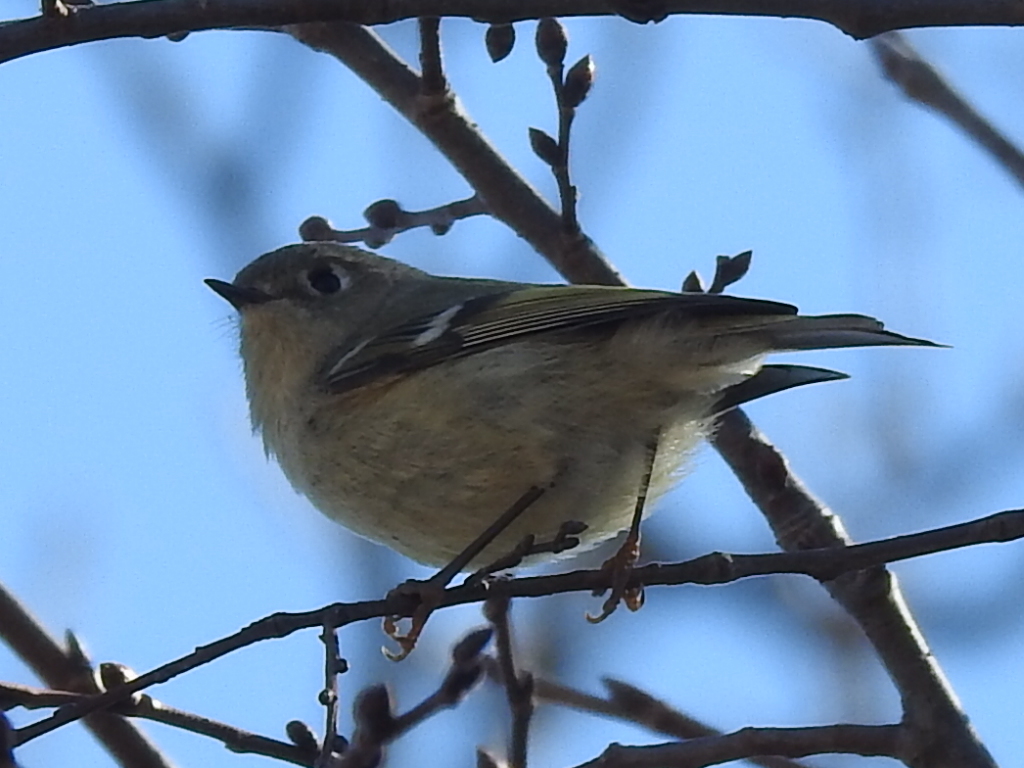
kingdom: Animalia
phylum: Chordata
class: Aves
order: Passeriformes
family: Regulidae
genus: Regulus
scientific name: Regulus calendula
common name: Ruby-crowned kinglet
